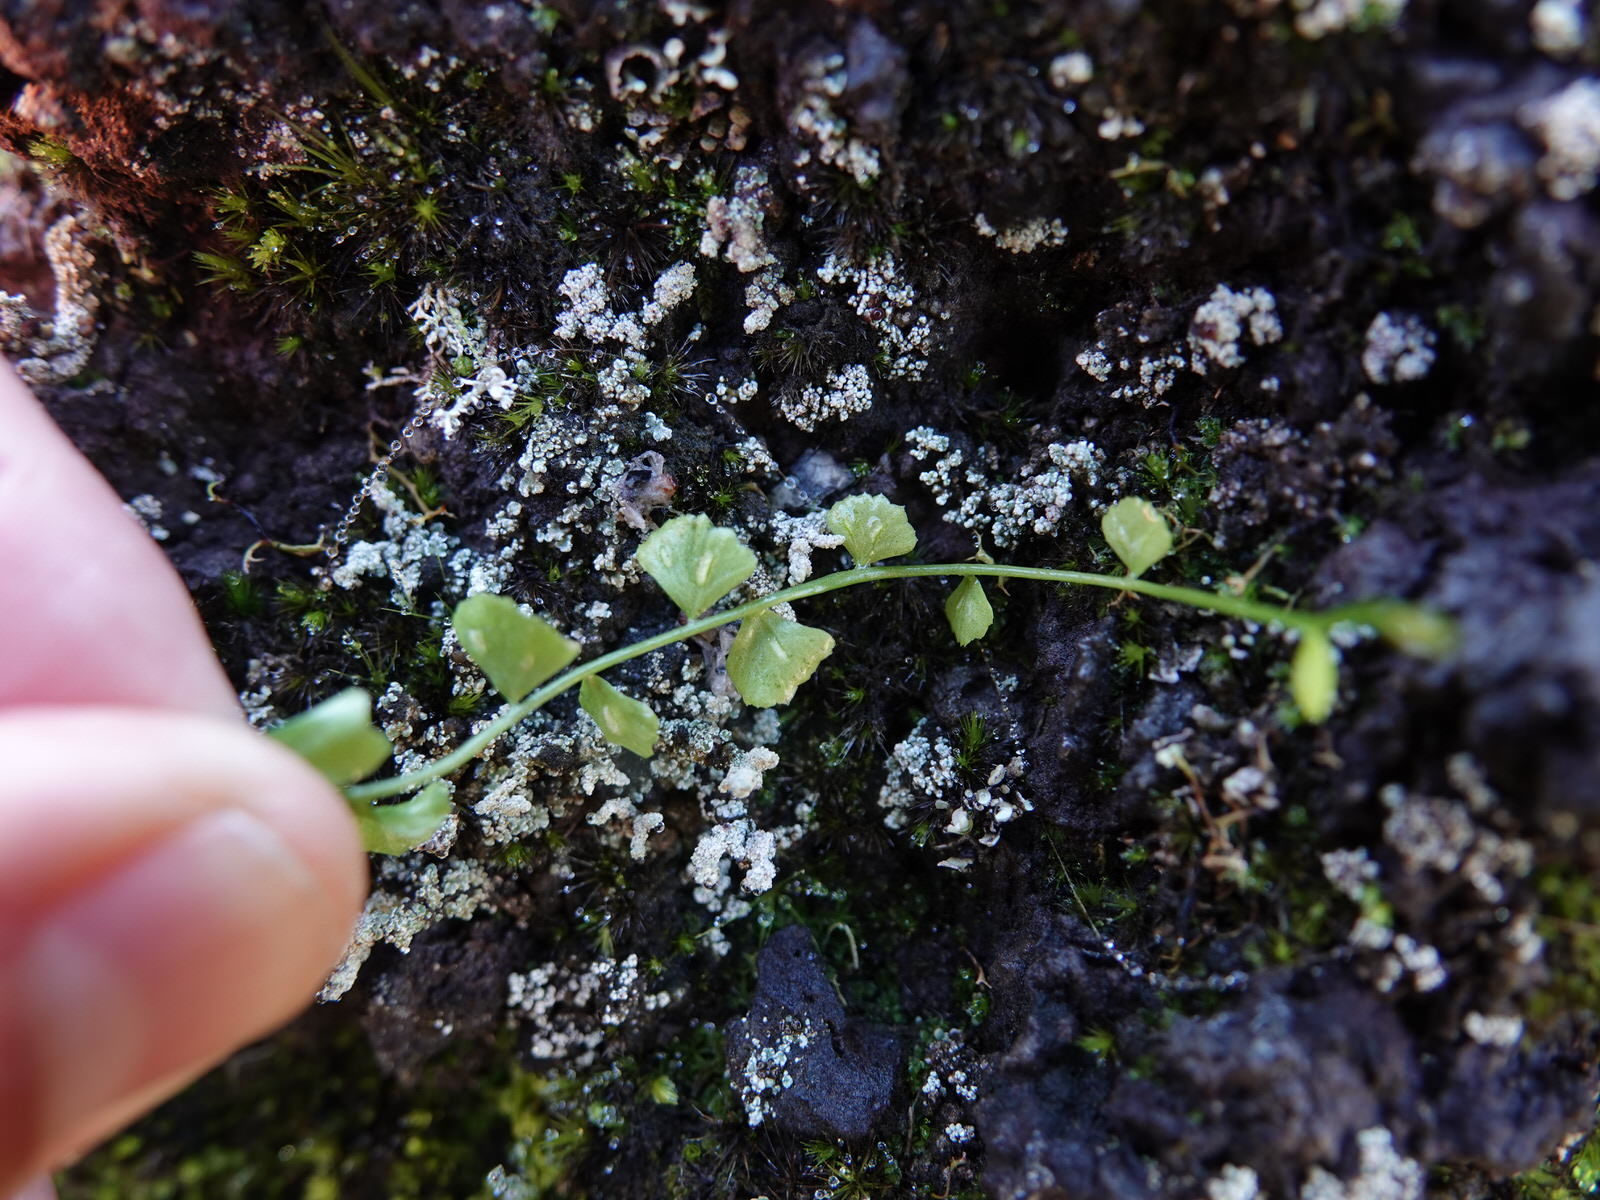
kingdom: Plantae
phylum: Tracheophyta
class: Polypodiopsida
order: Polypodiales
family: Aspleniaceae
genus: Asplenium
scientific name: Asplenium flabellifolium
